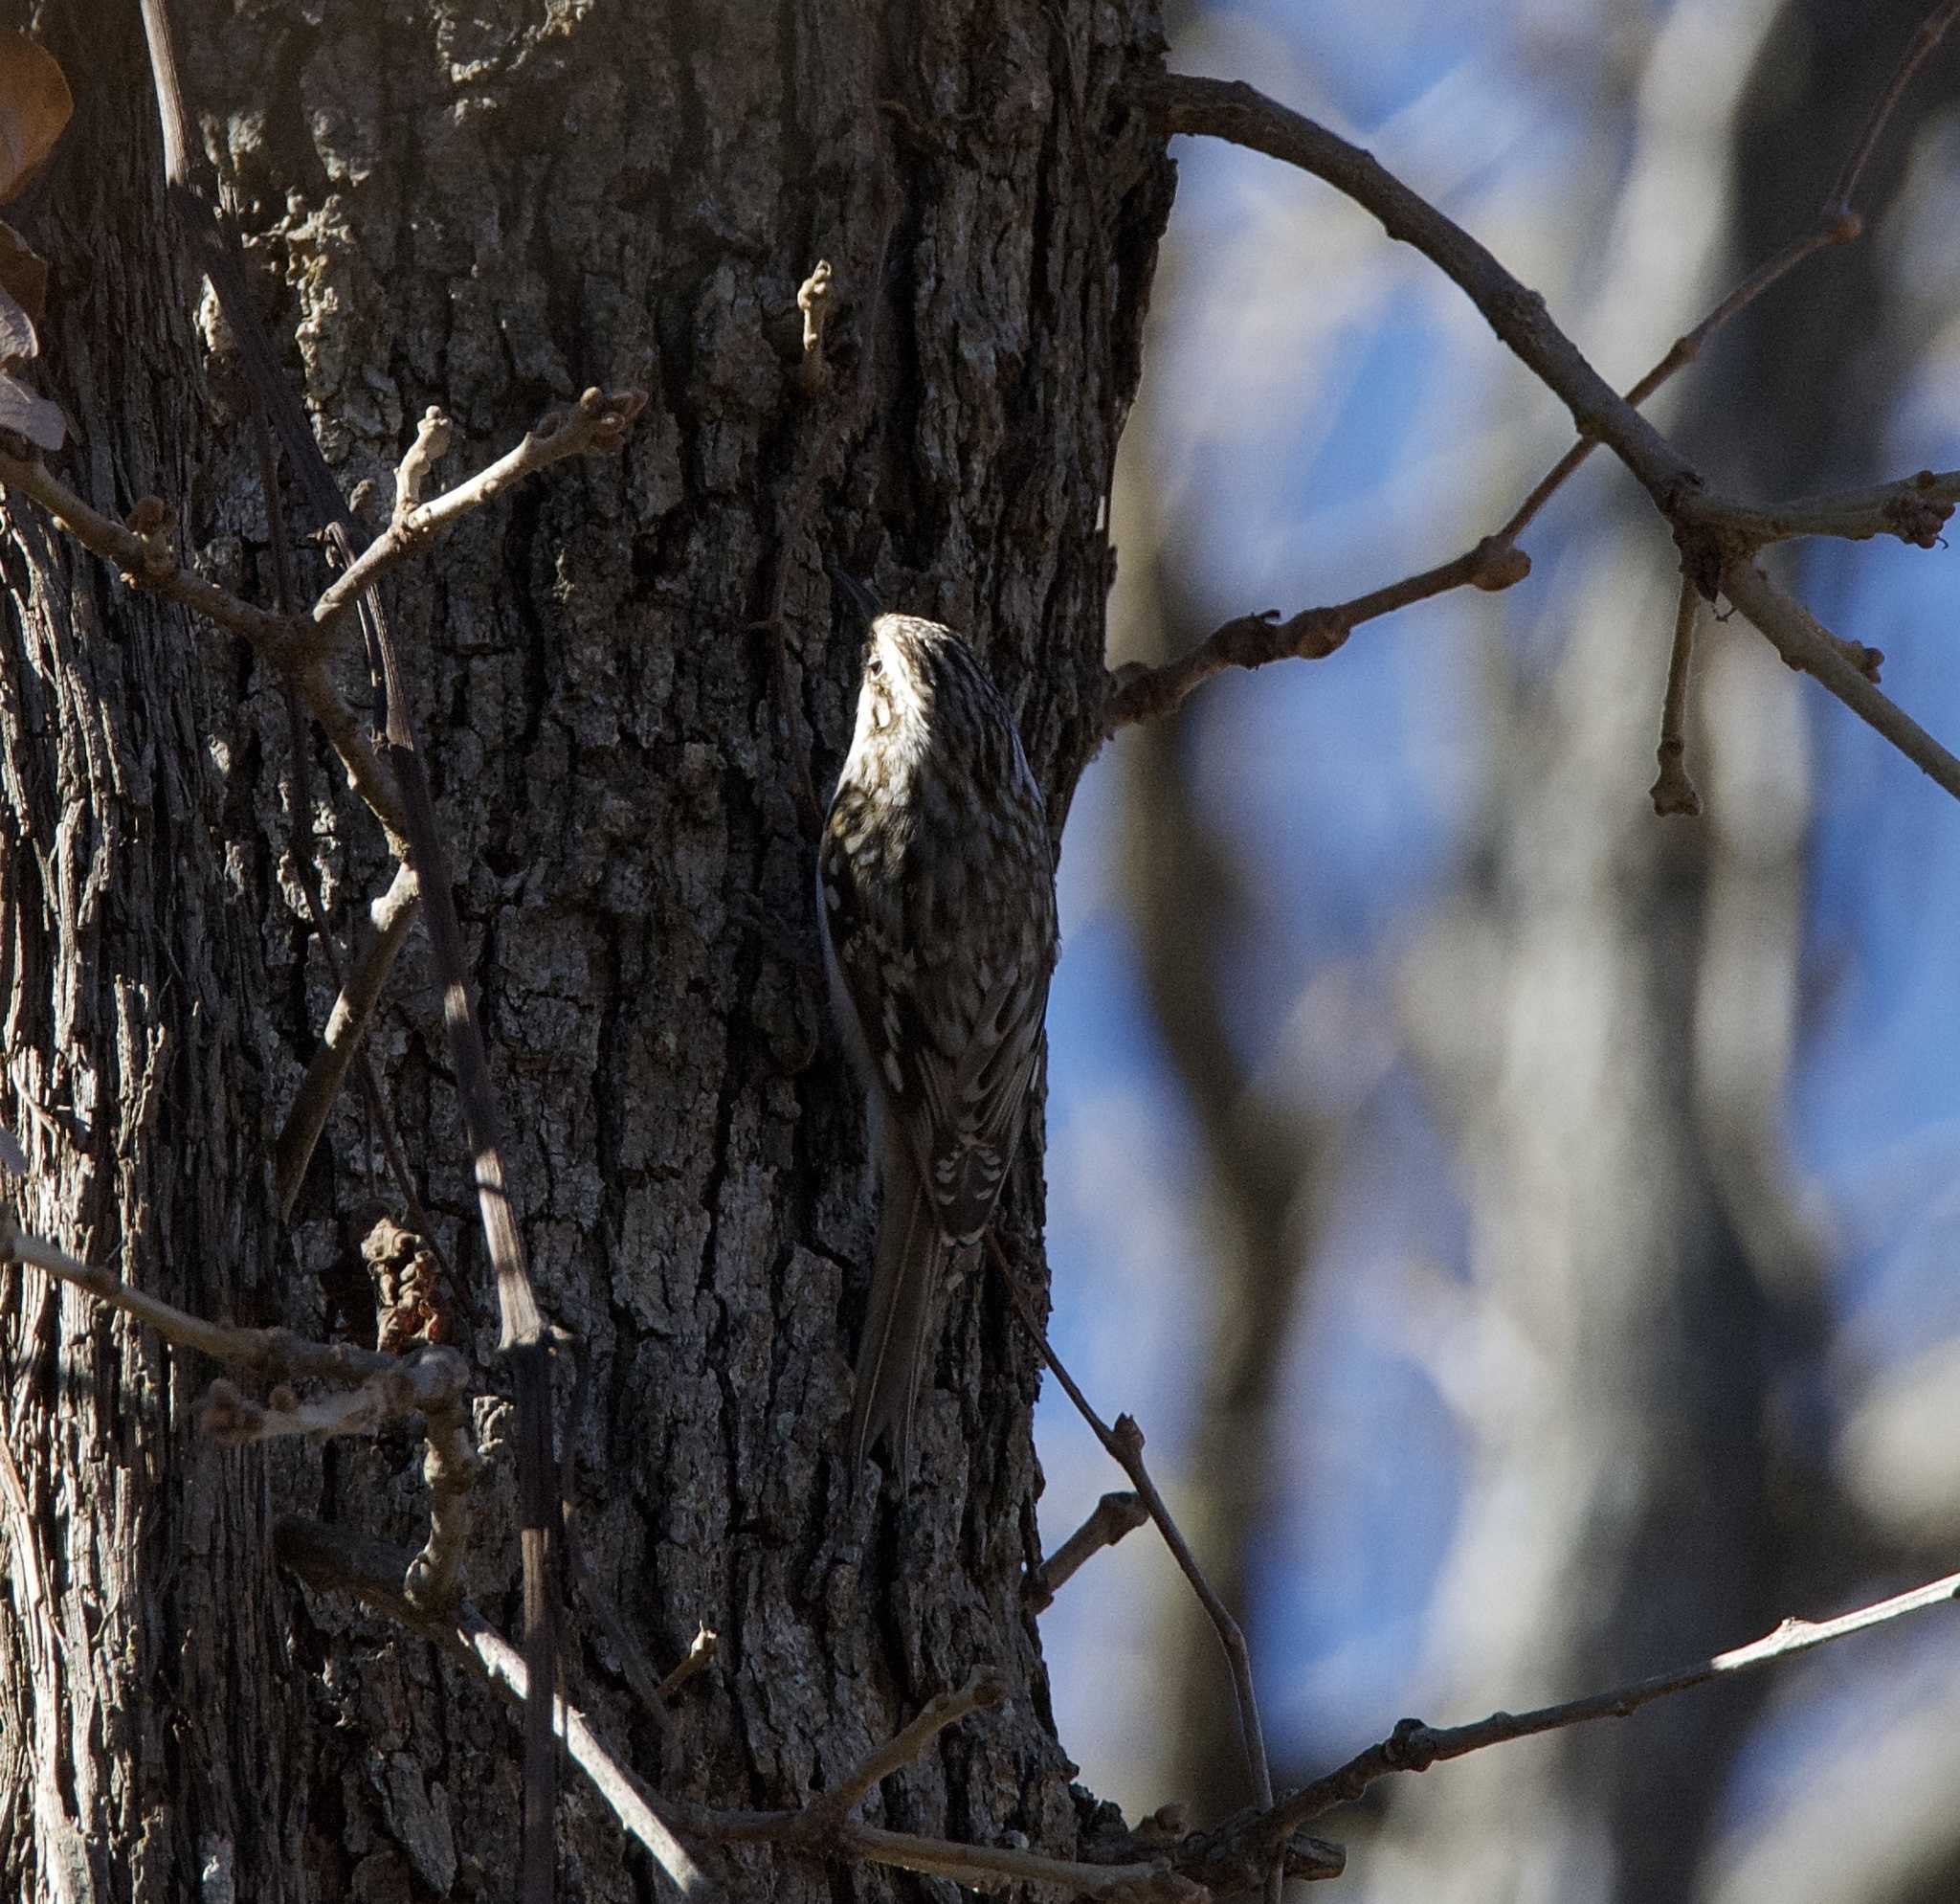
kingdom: Animalia
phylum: Chordata
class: Aves
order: Passeriformes
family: Certhiidae
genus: Certhia
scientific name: Certhia americana
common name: Brown creeper
